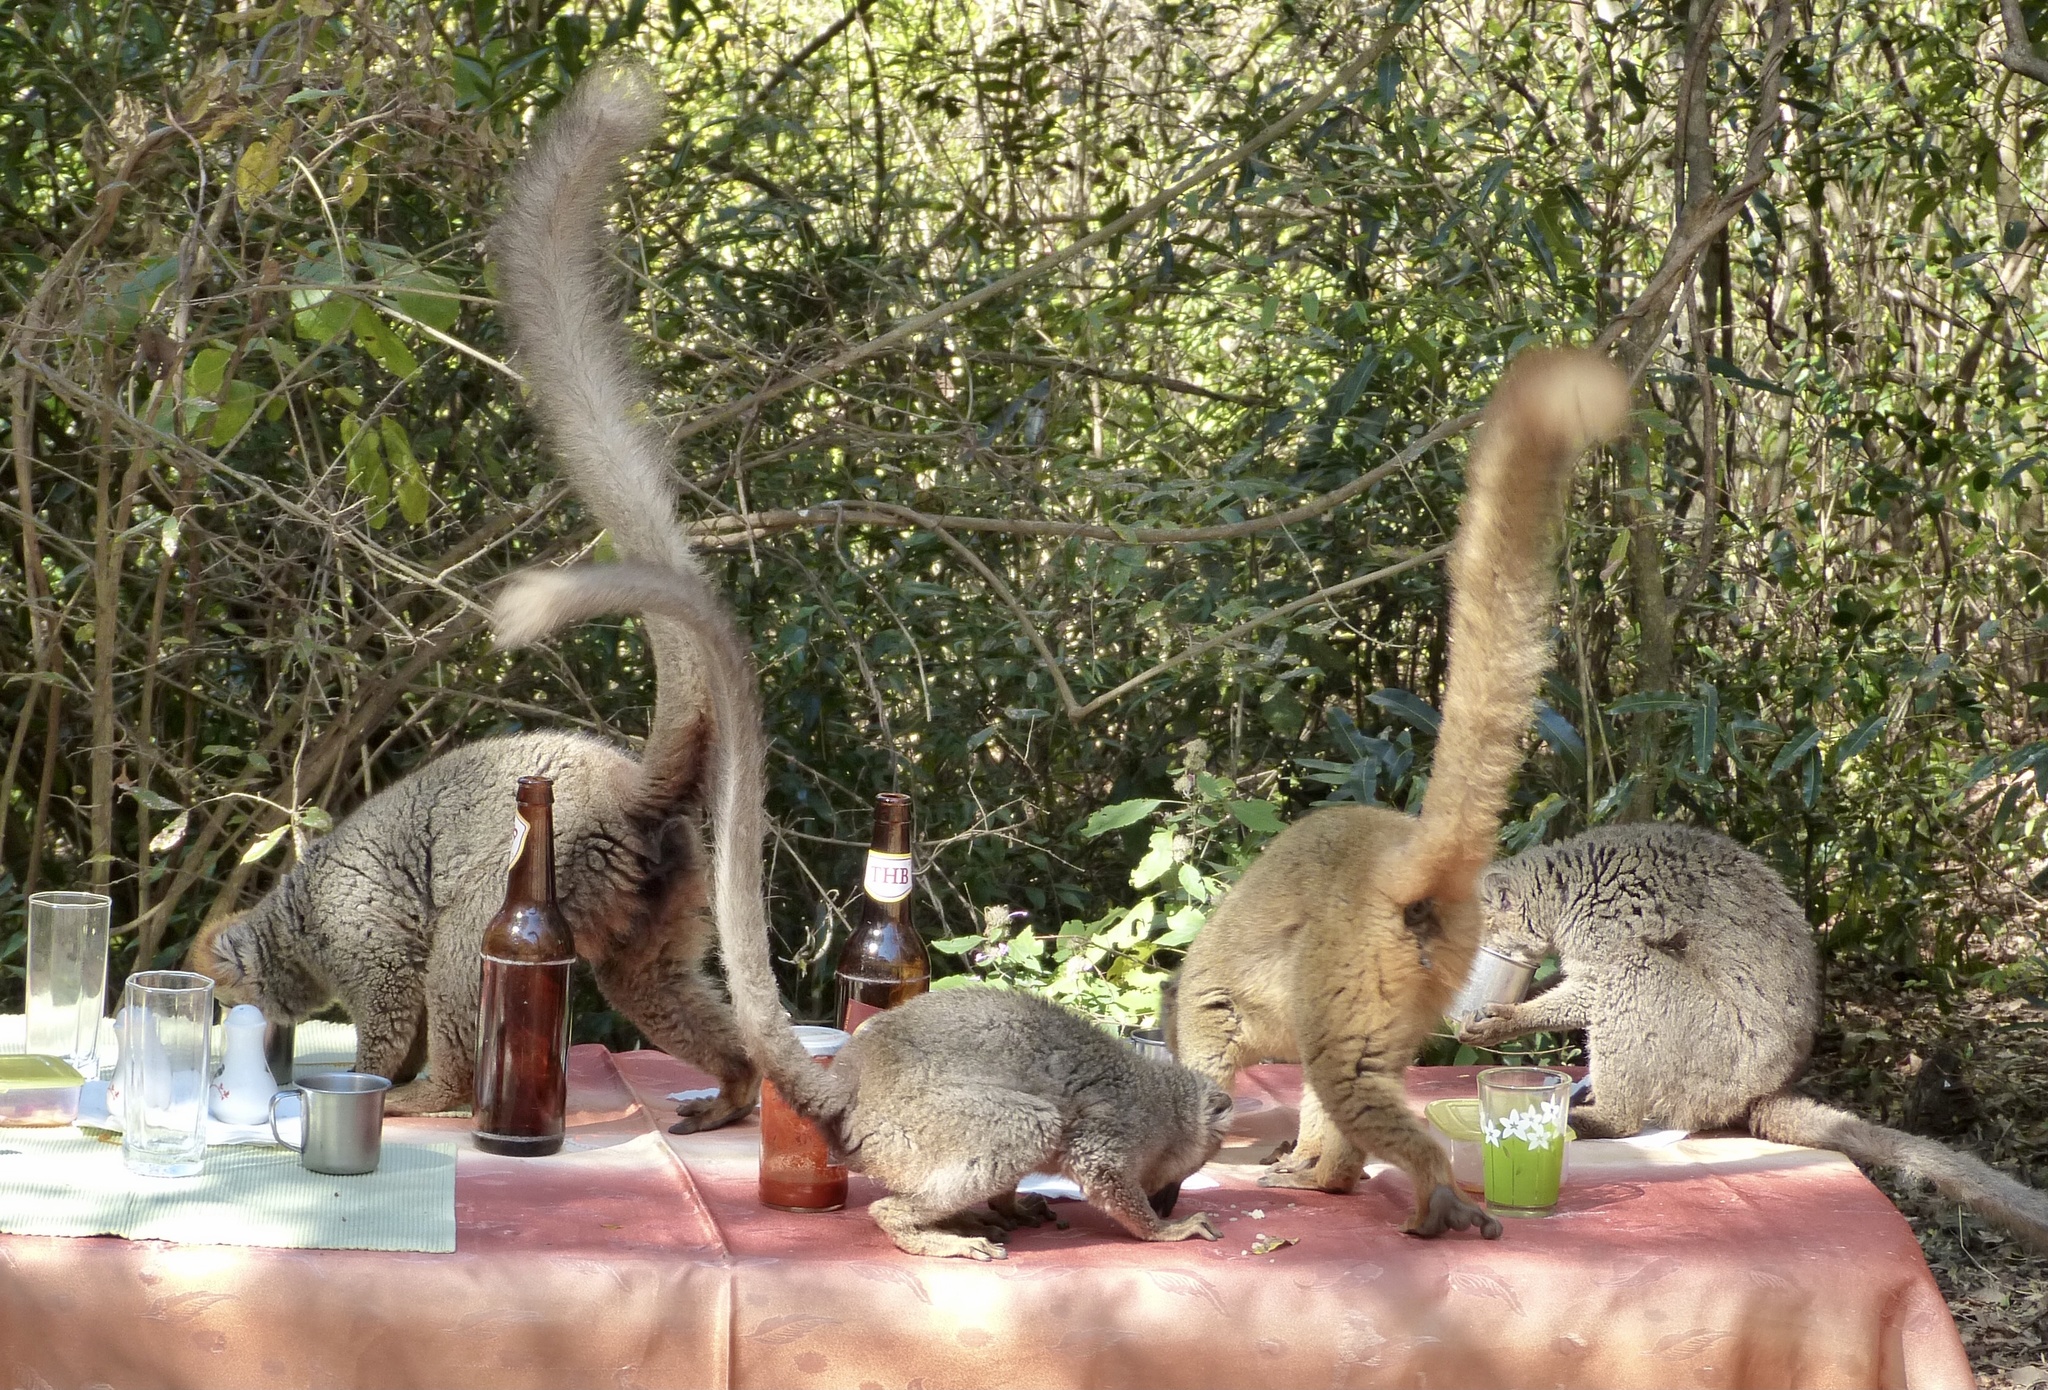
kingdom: Animalia
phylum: Chordata
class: Mammalia
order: Primates
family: Lemuridae
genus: Eulemur
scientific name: Eulemur rufifrons
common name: Red-fronted brown lemur
